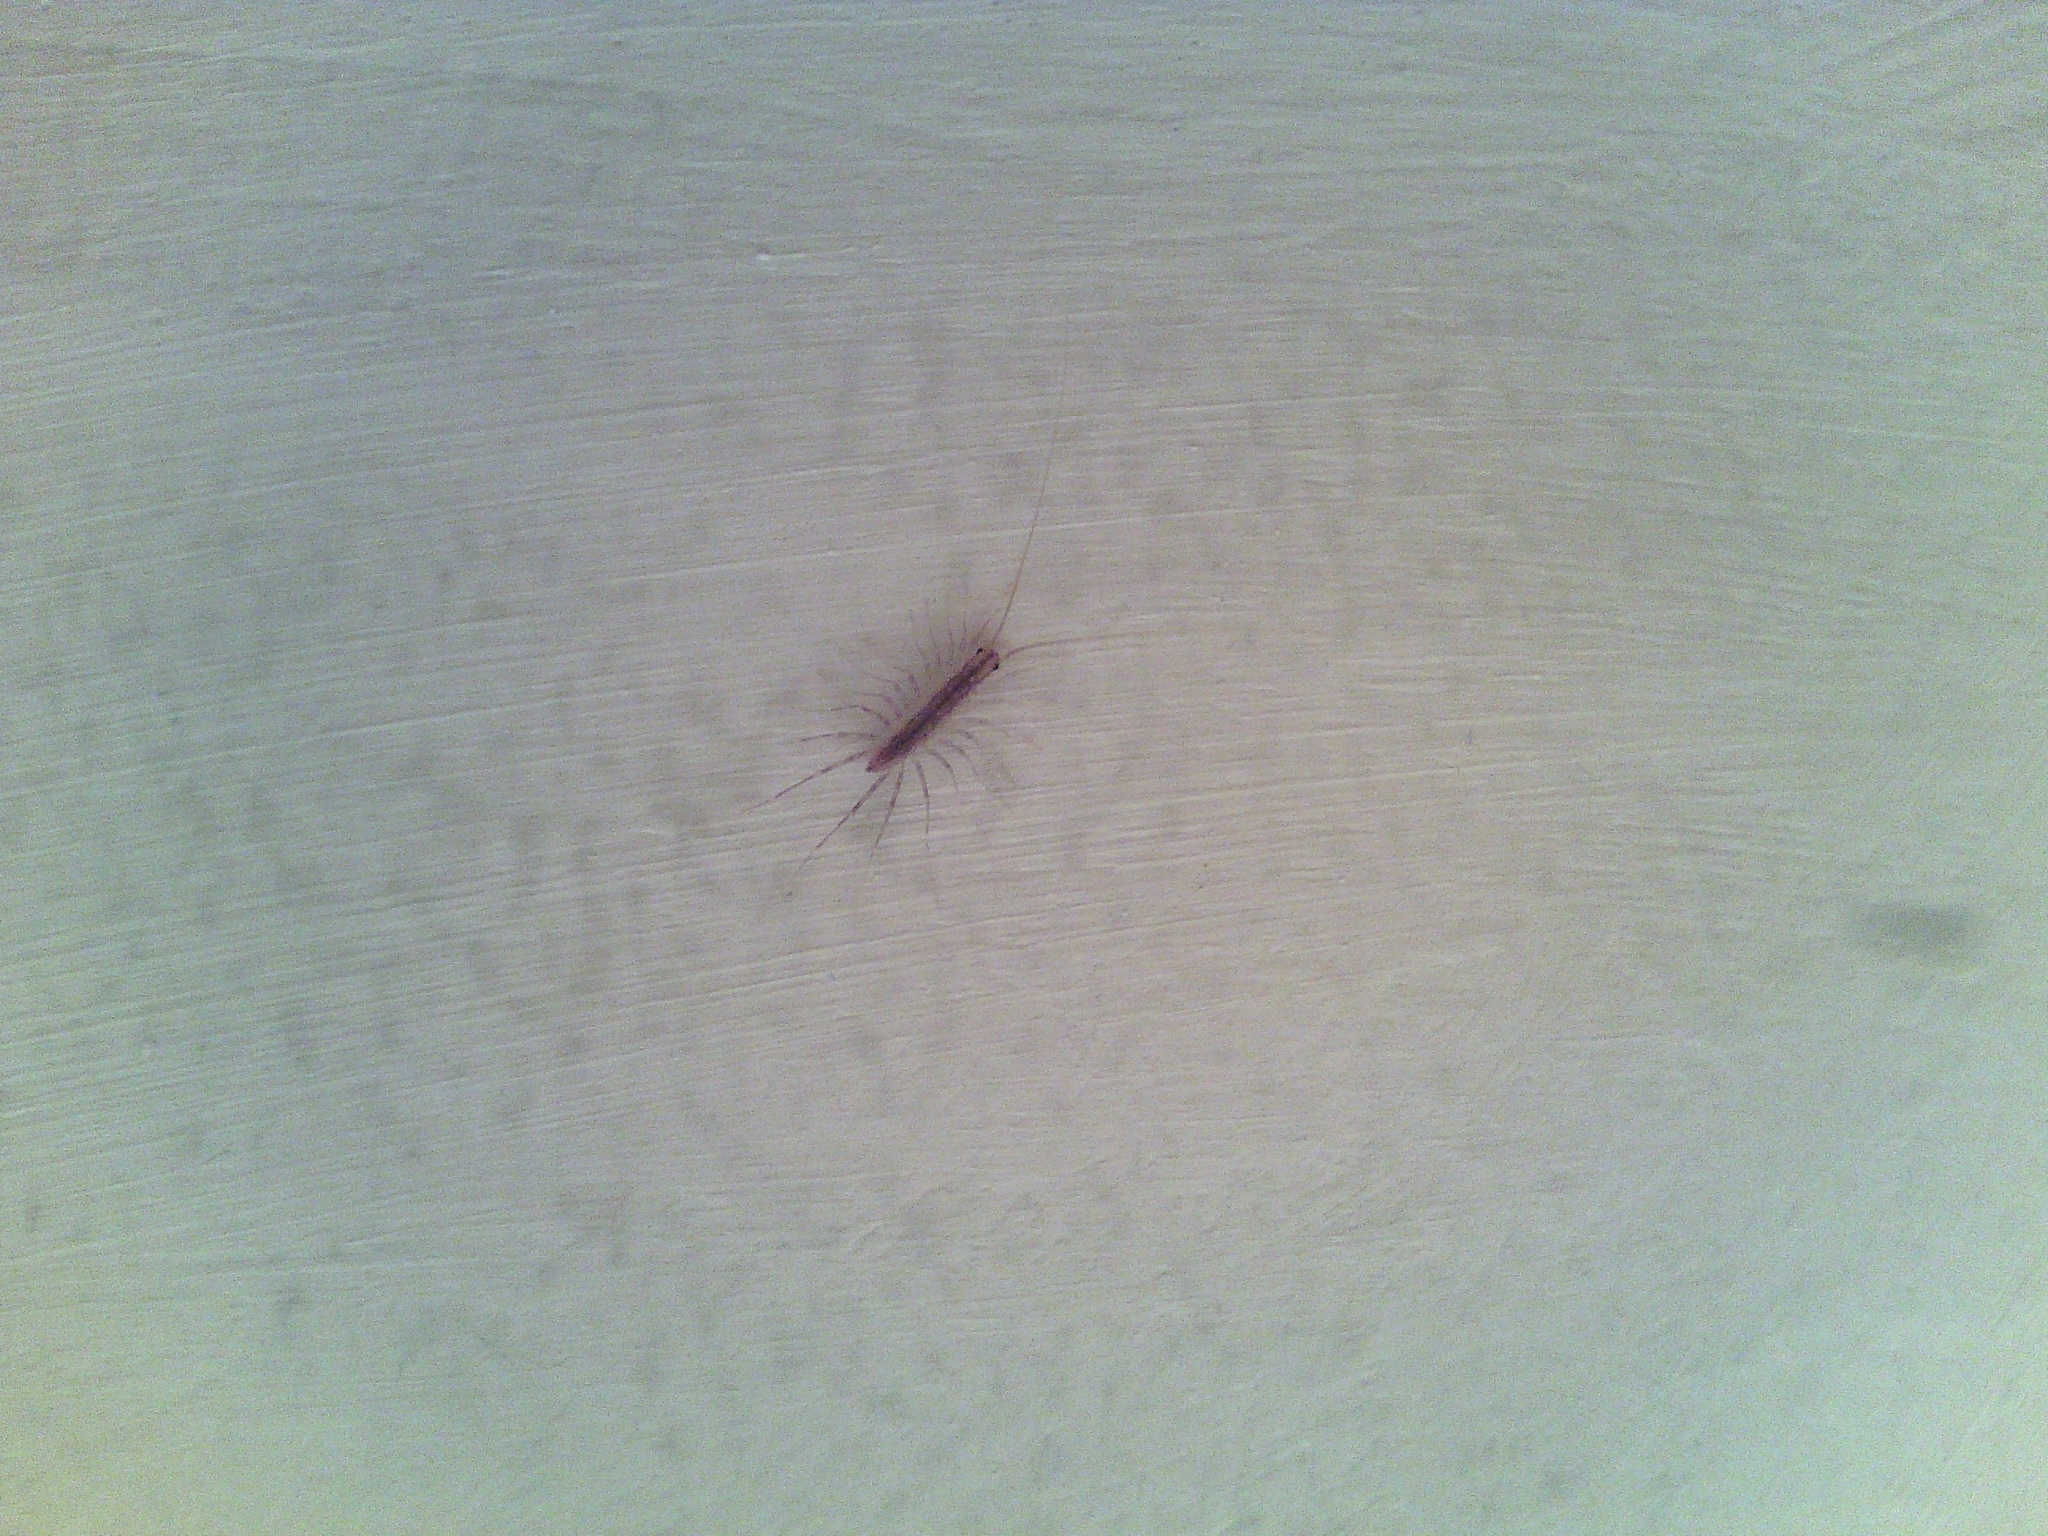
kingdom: Animalia
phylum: Arthropoda
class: Chilopoda
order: Scutigeromorpha
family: Scutigeridae
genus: Scutigera
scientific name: Scutigera coleoptrata
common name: House centipede
